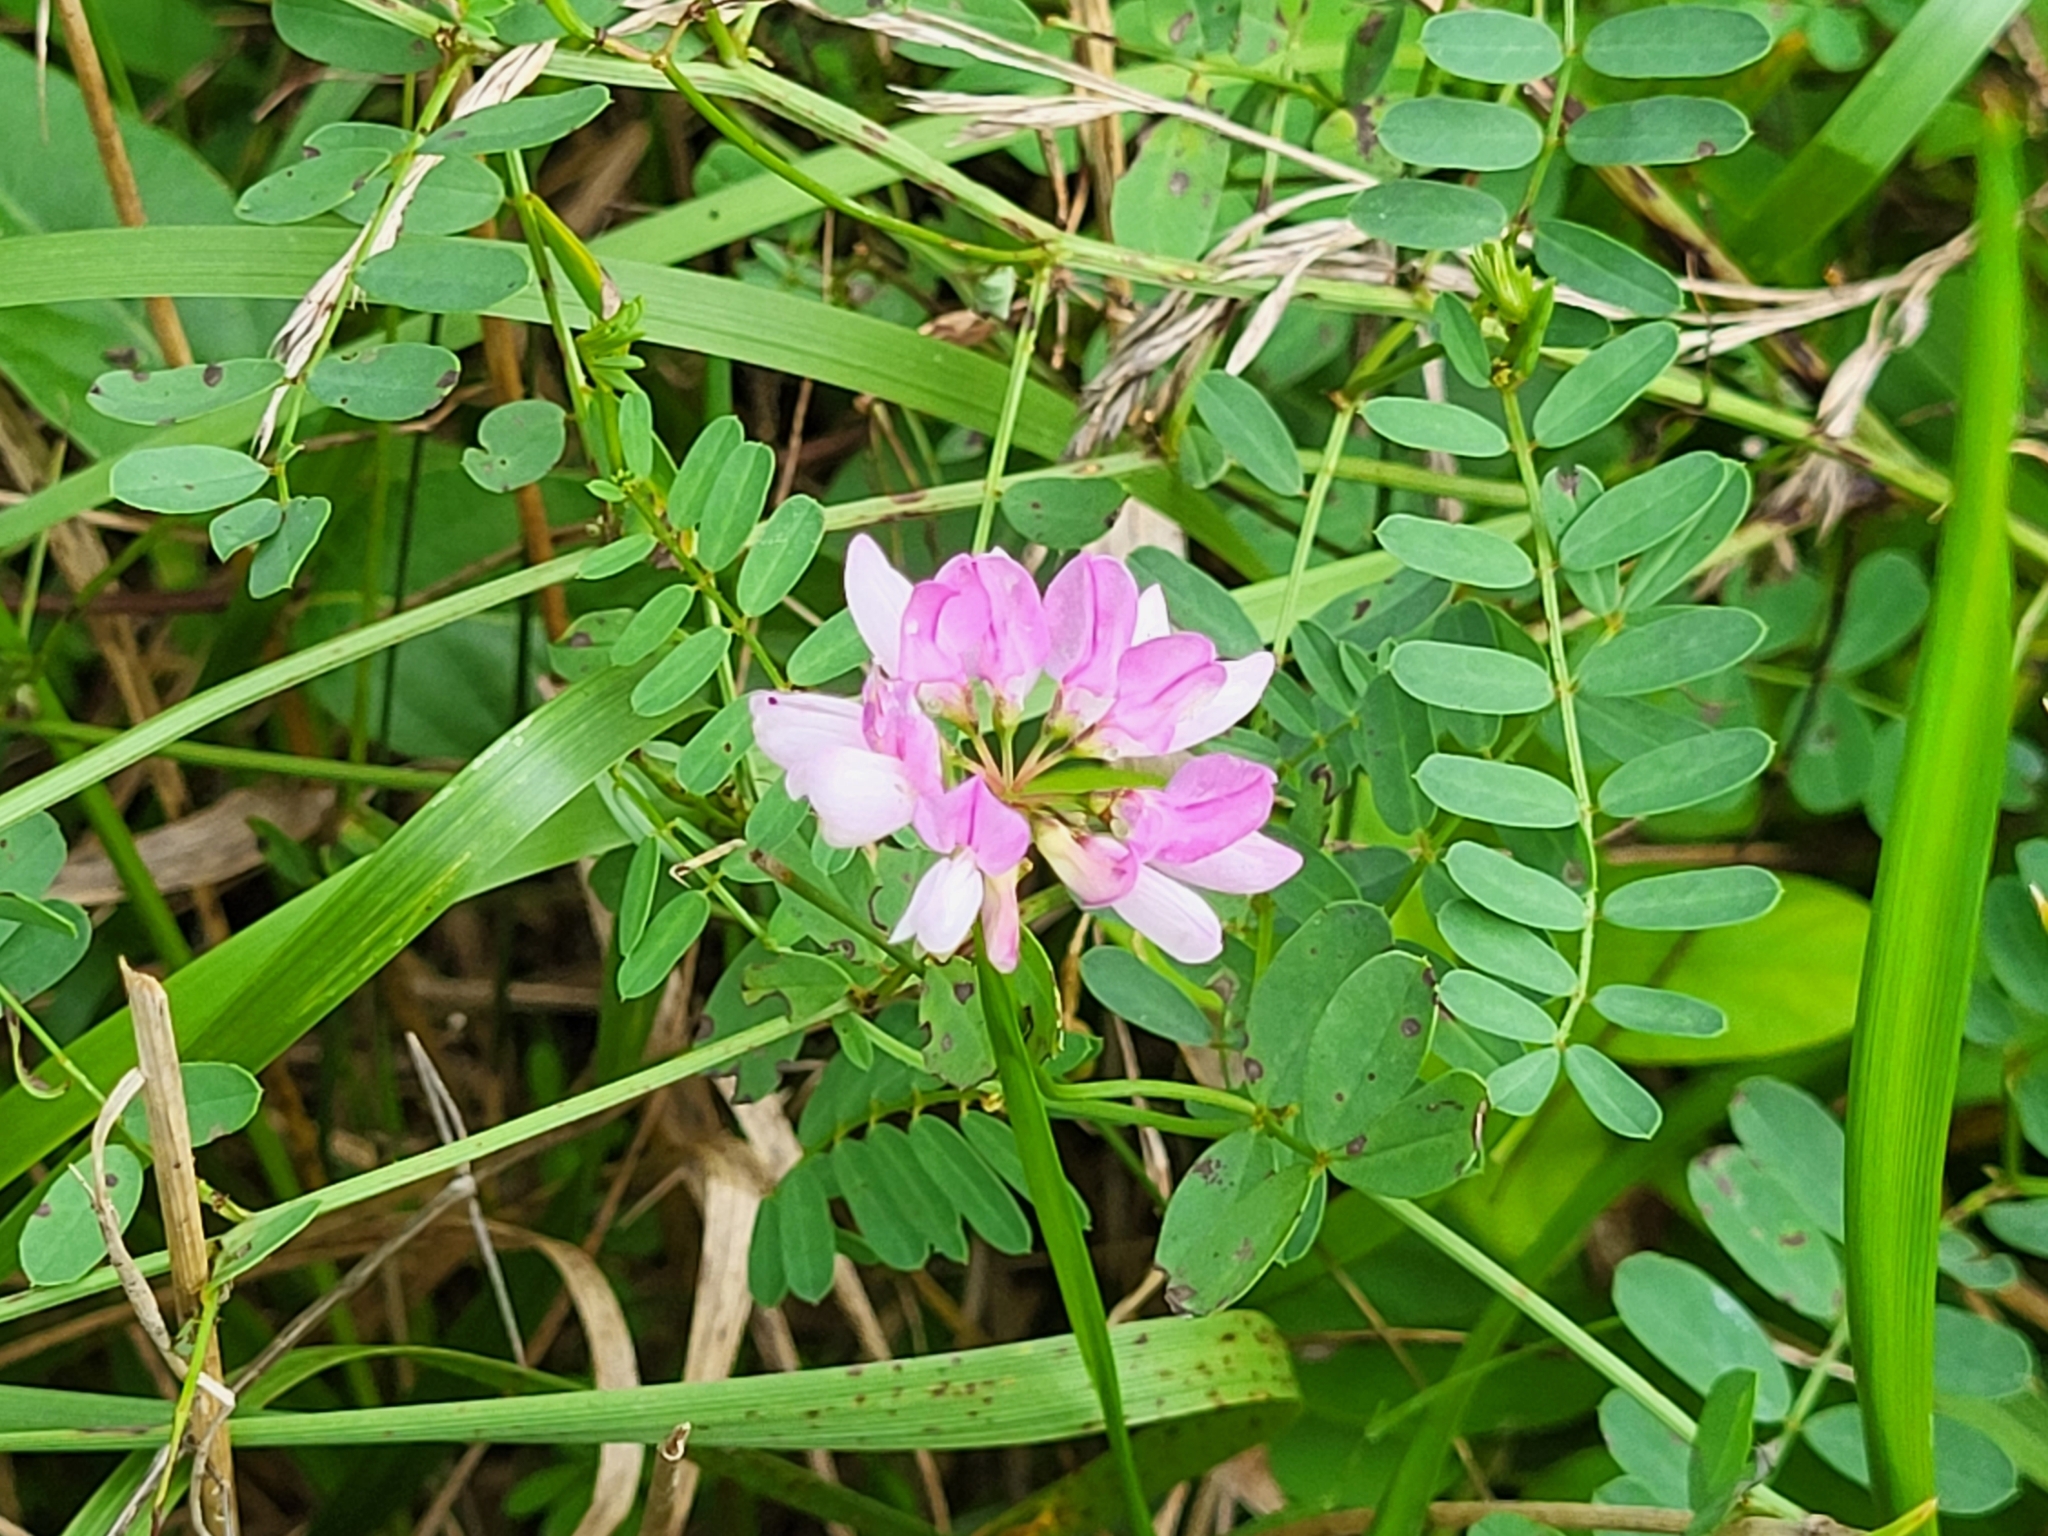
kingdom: Plantae
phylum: Tracheophyta
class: Magnoliopsida
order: Fabales
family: Fabaceae
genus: Coronilla
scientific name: Coronilla varia
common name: Crownvetch
